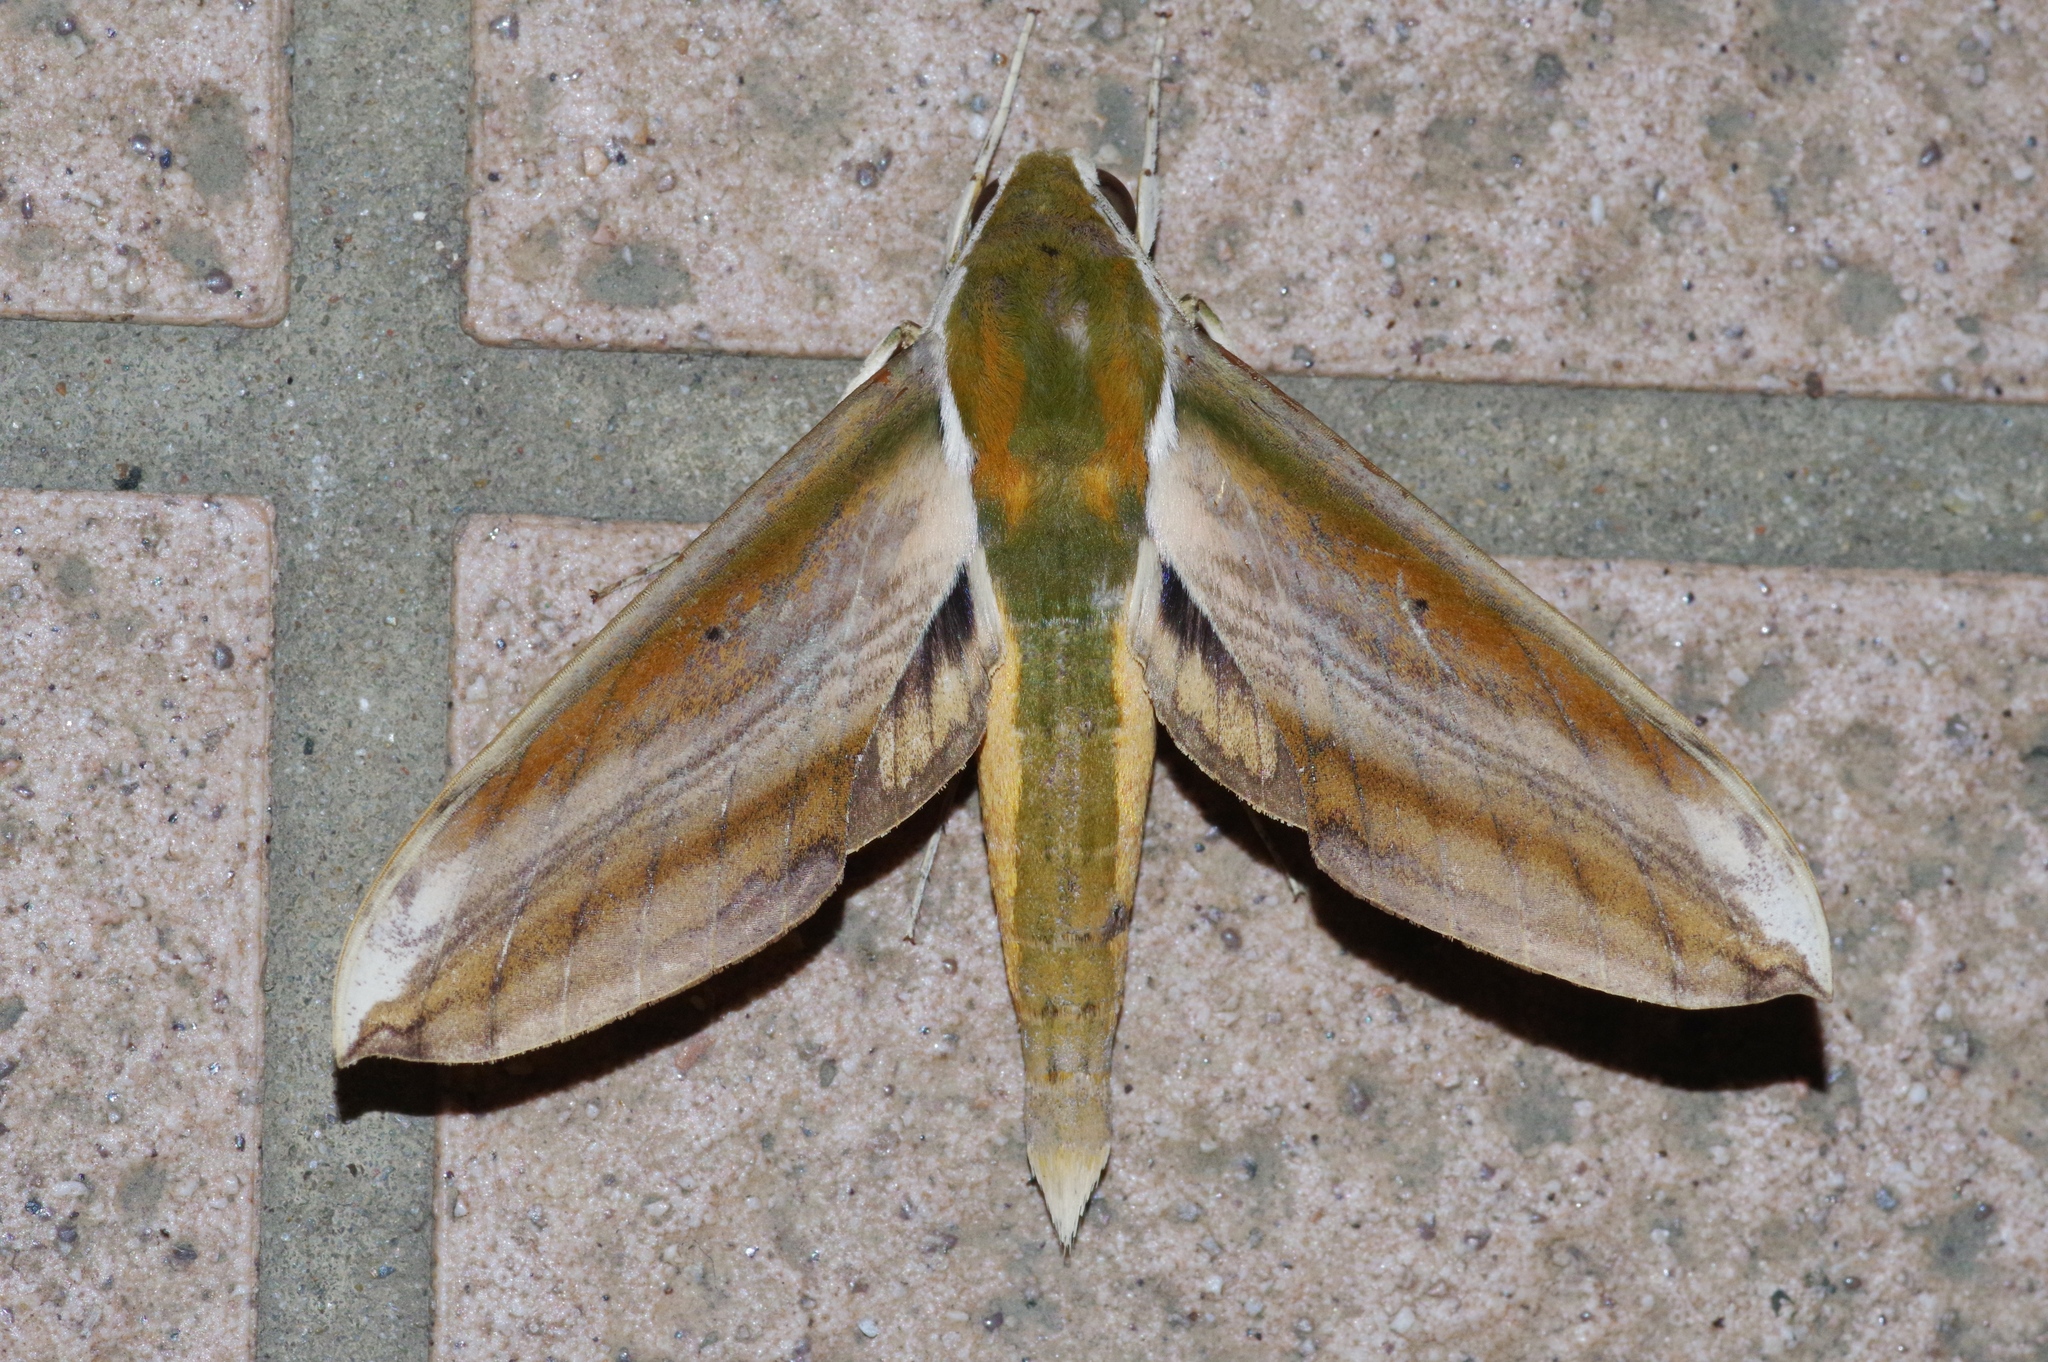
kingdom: Animalia
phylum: Arthropoda
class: Insecta
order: Lepidoptera
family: Sphingidae
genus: Theretra
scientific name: Theretra nessus
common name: Yam hawk moth
